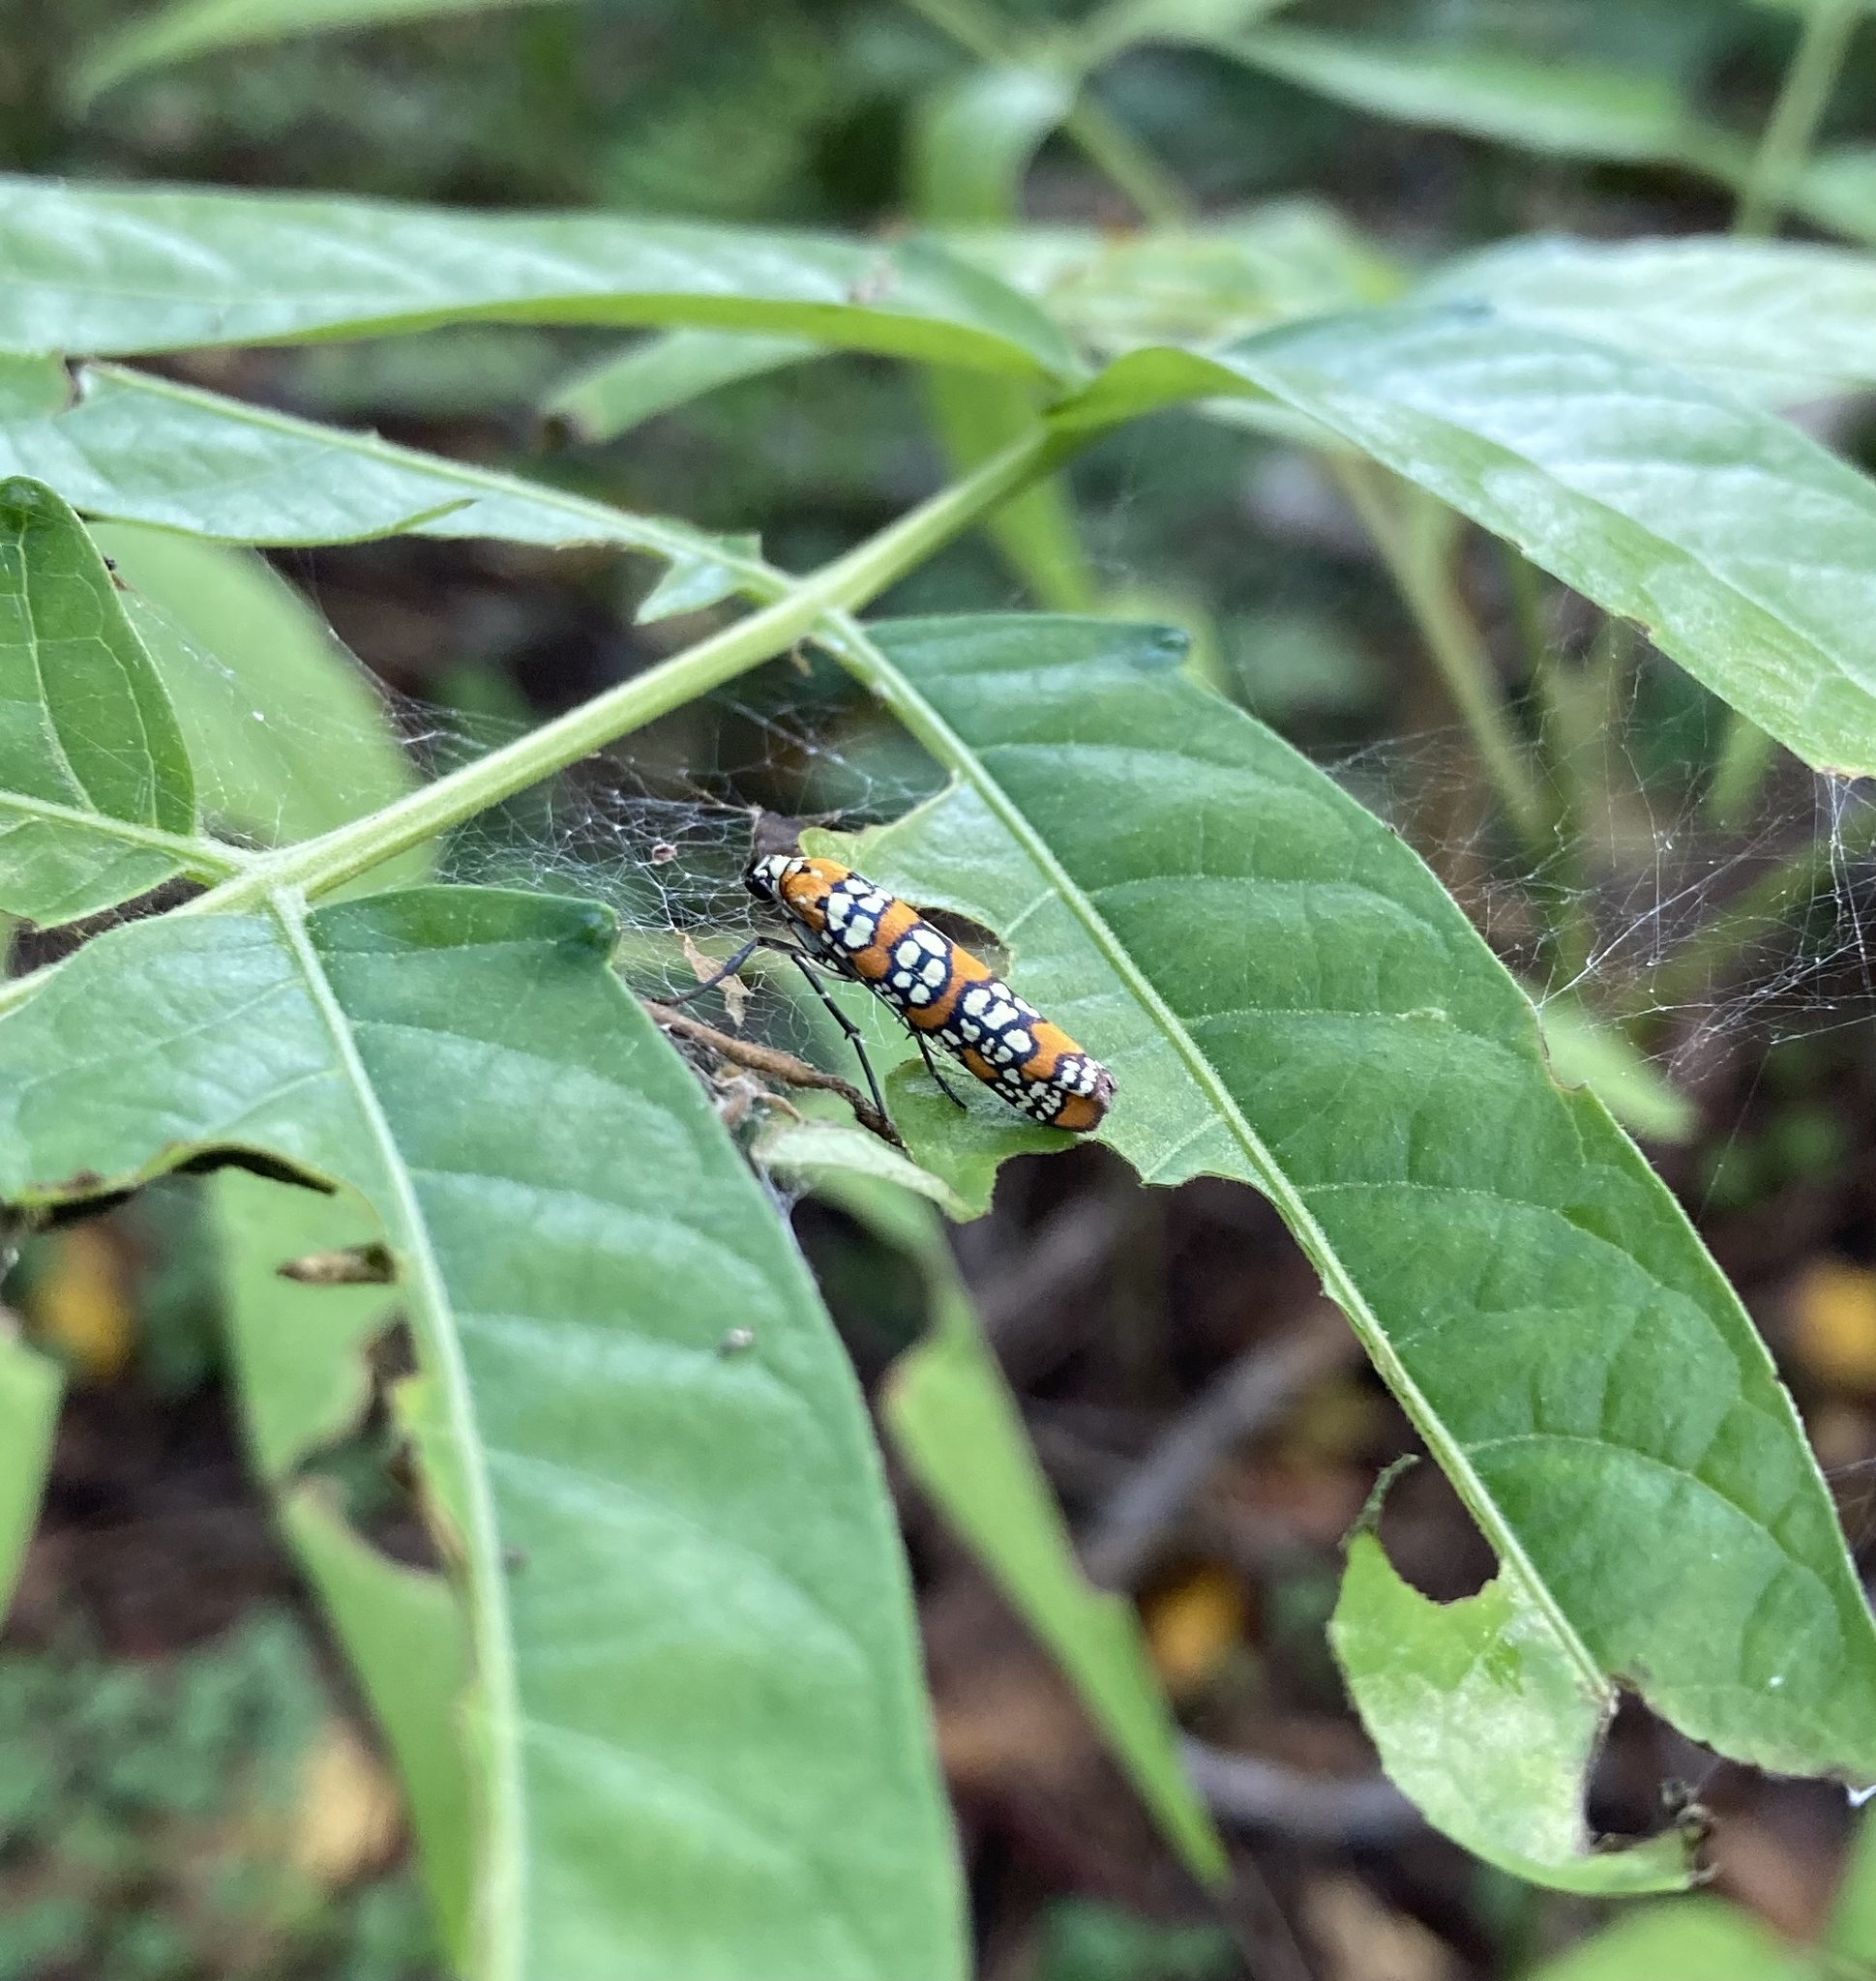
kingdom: Animalia
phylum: Arthropoda
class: Insecta
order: Lepidoptera
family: Attevidae
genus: Atteva
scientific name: Atteva punctella
